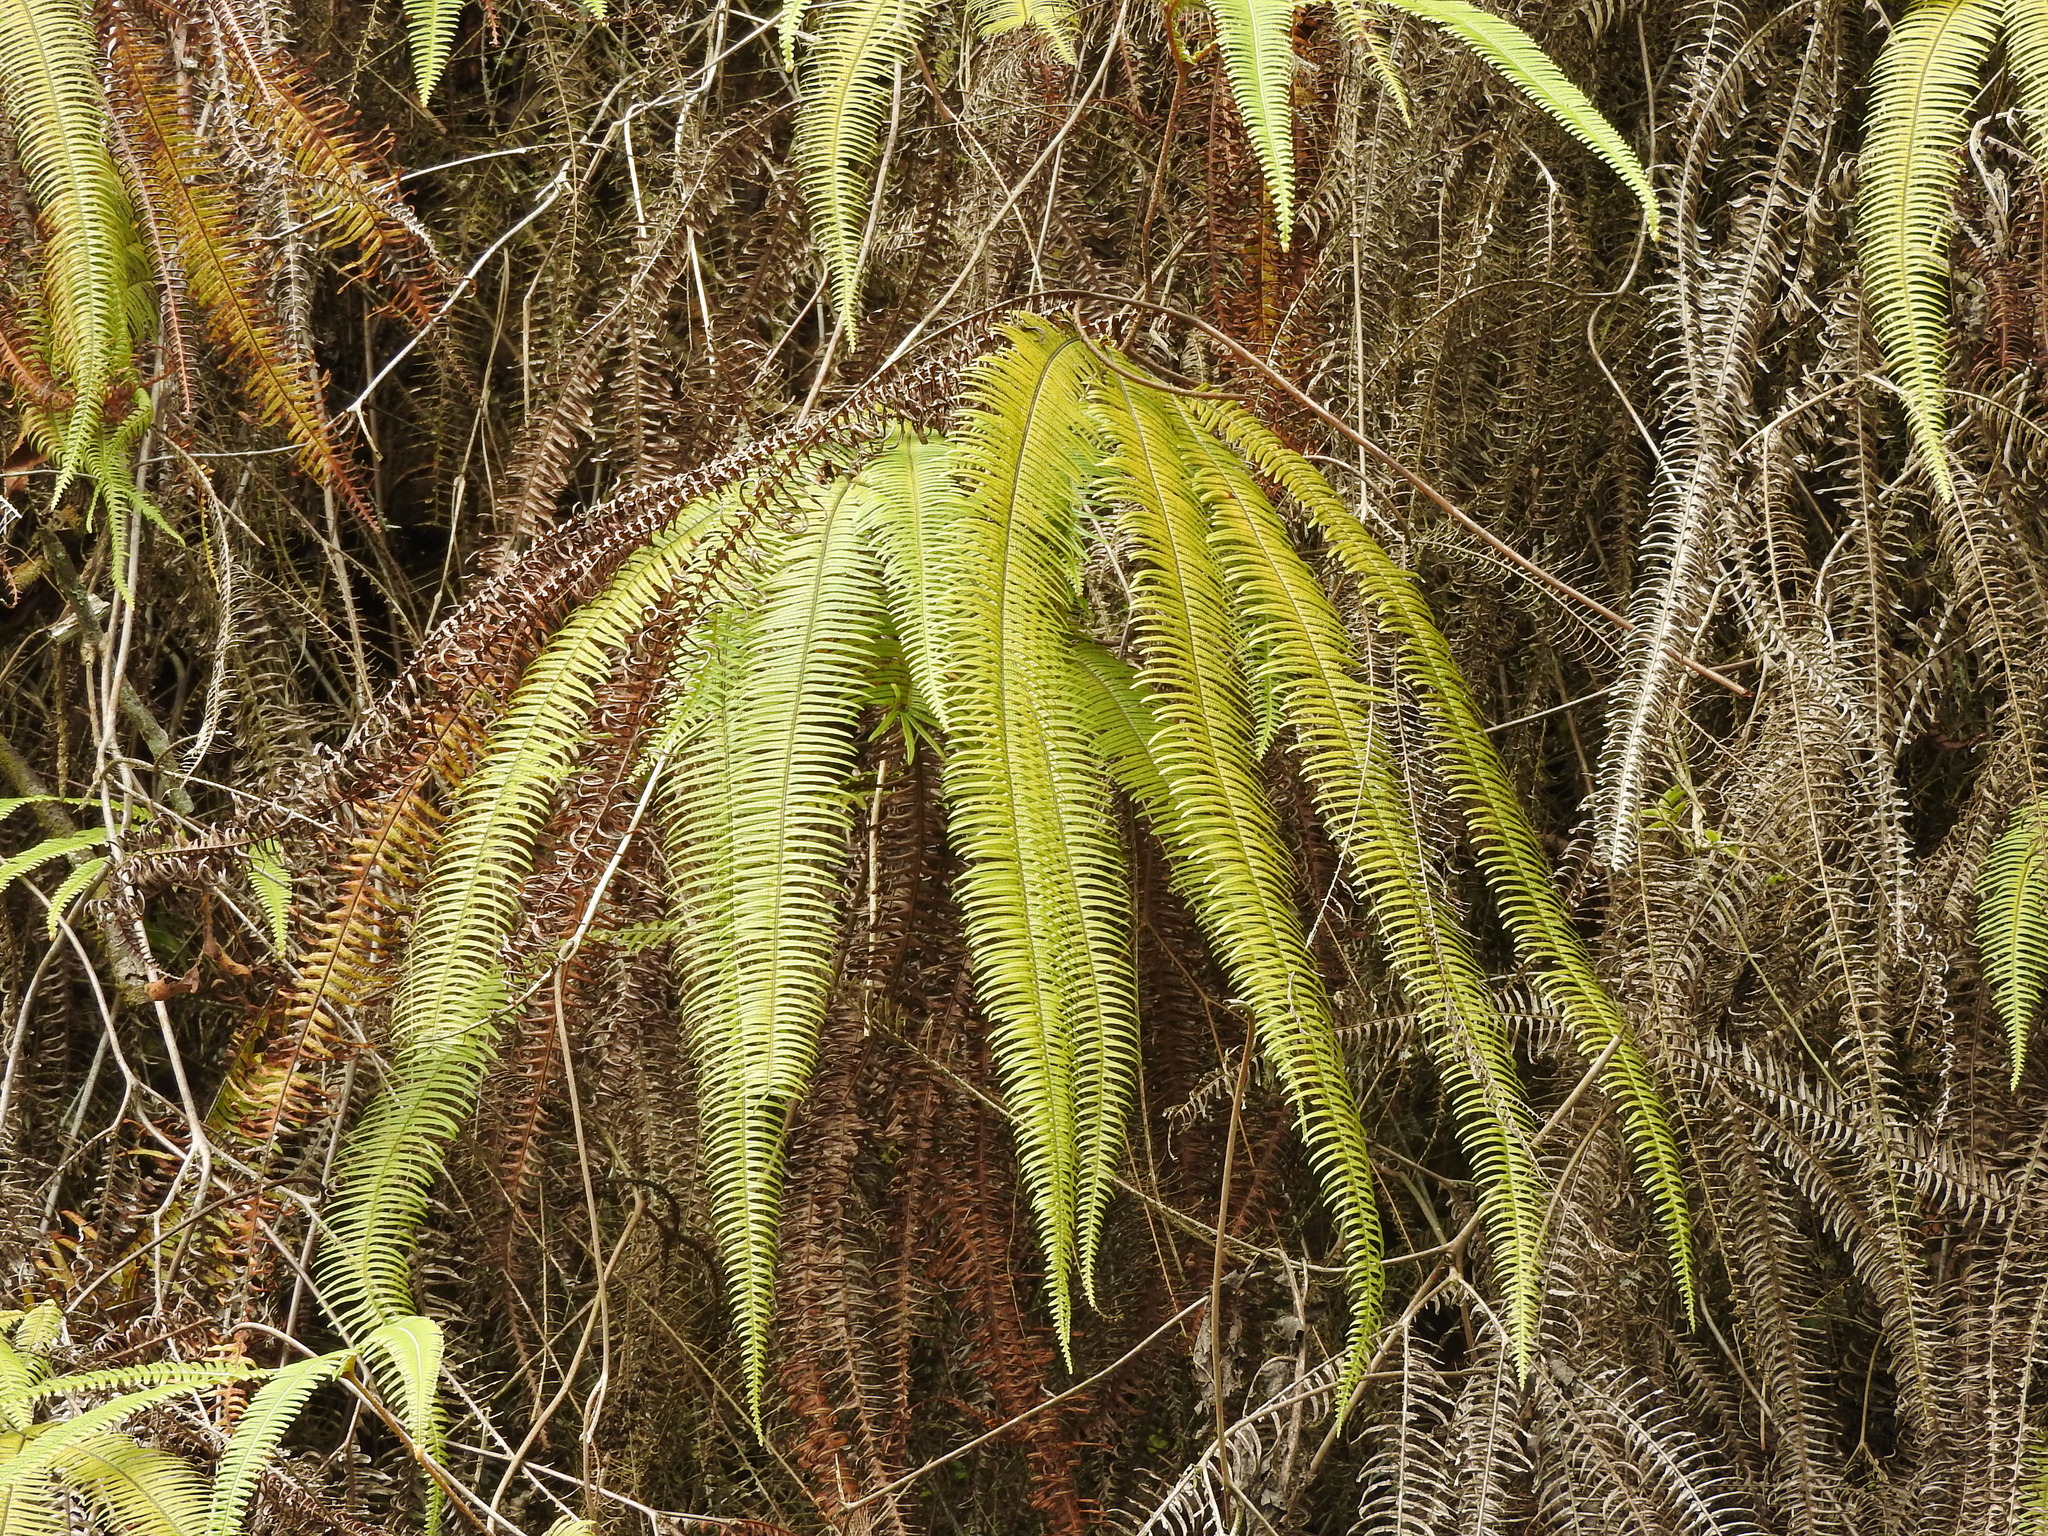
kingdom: Plantae
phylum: Tracheophyta
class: Polypodiopsida
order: Gleicheniales
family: Gleicheniaceae
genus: Sticherus
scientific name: Sticherus fulvus
